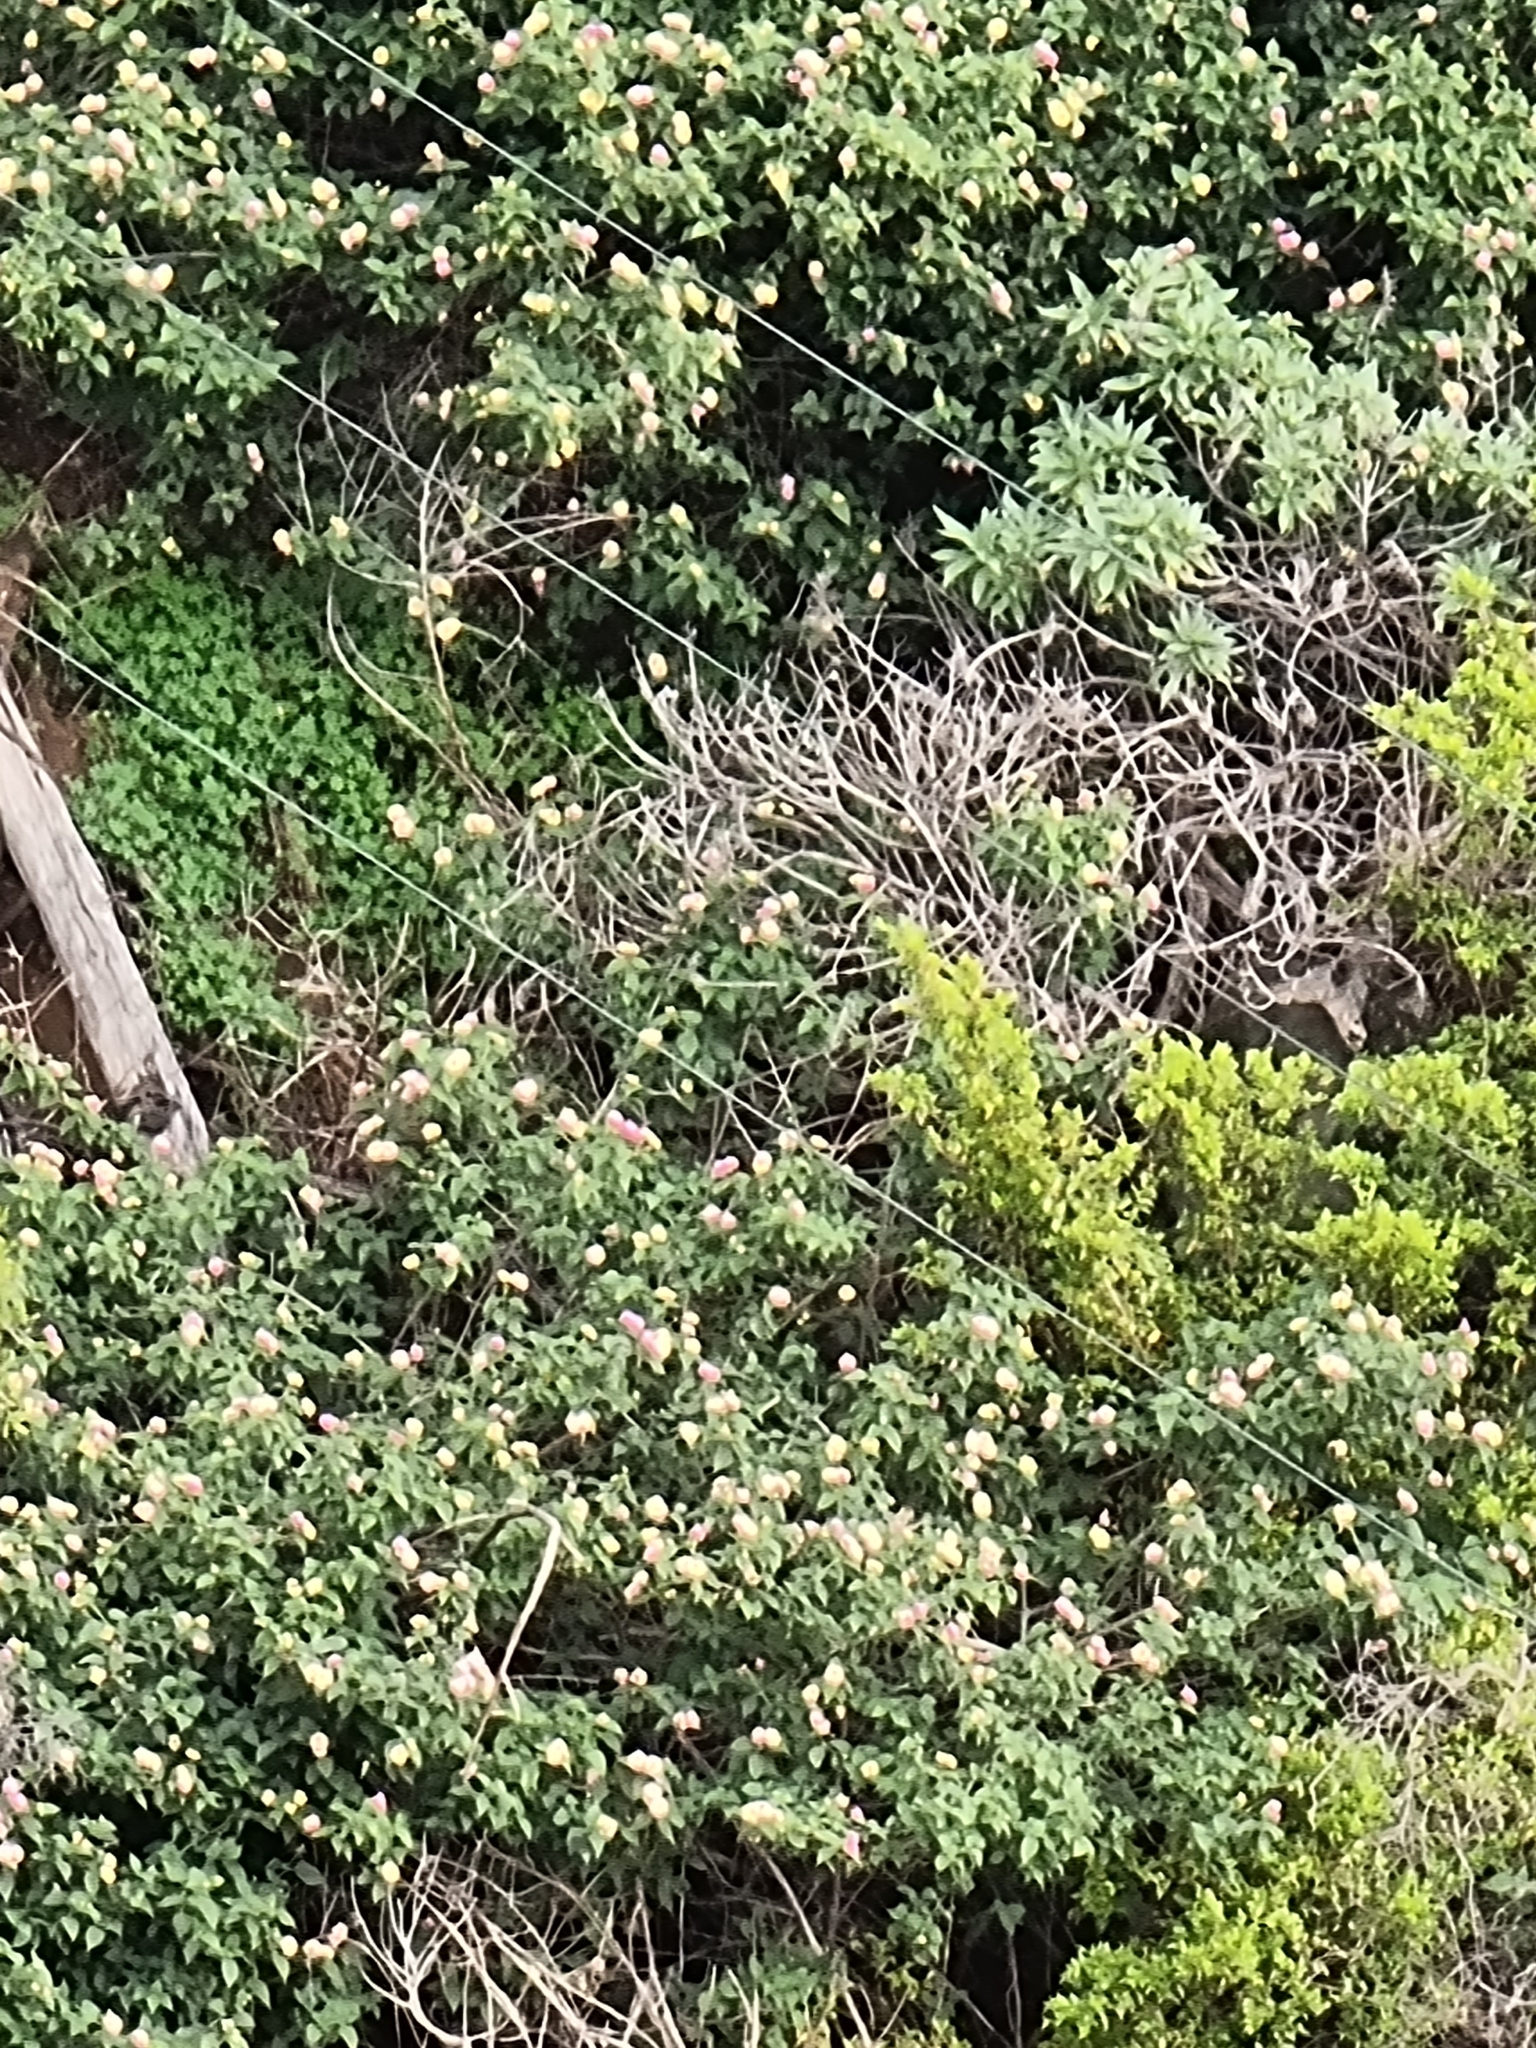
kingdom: Plantae
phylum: Tracheophyta
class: Magnoliopsida
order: Lamiales
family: Verbenaceae
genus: Lantana
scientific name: Lantana camara
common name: Lantana
